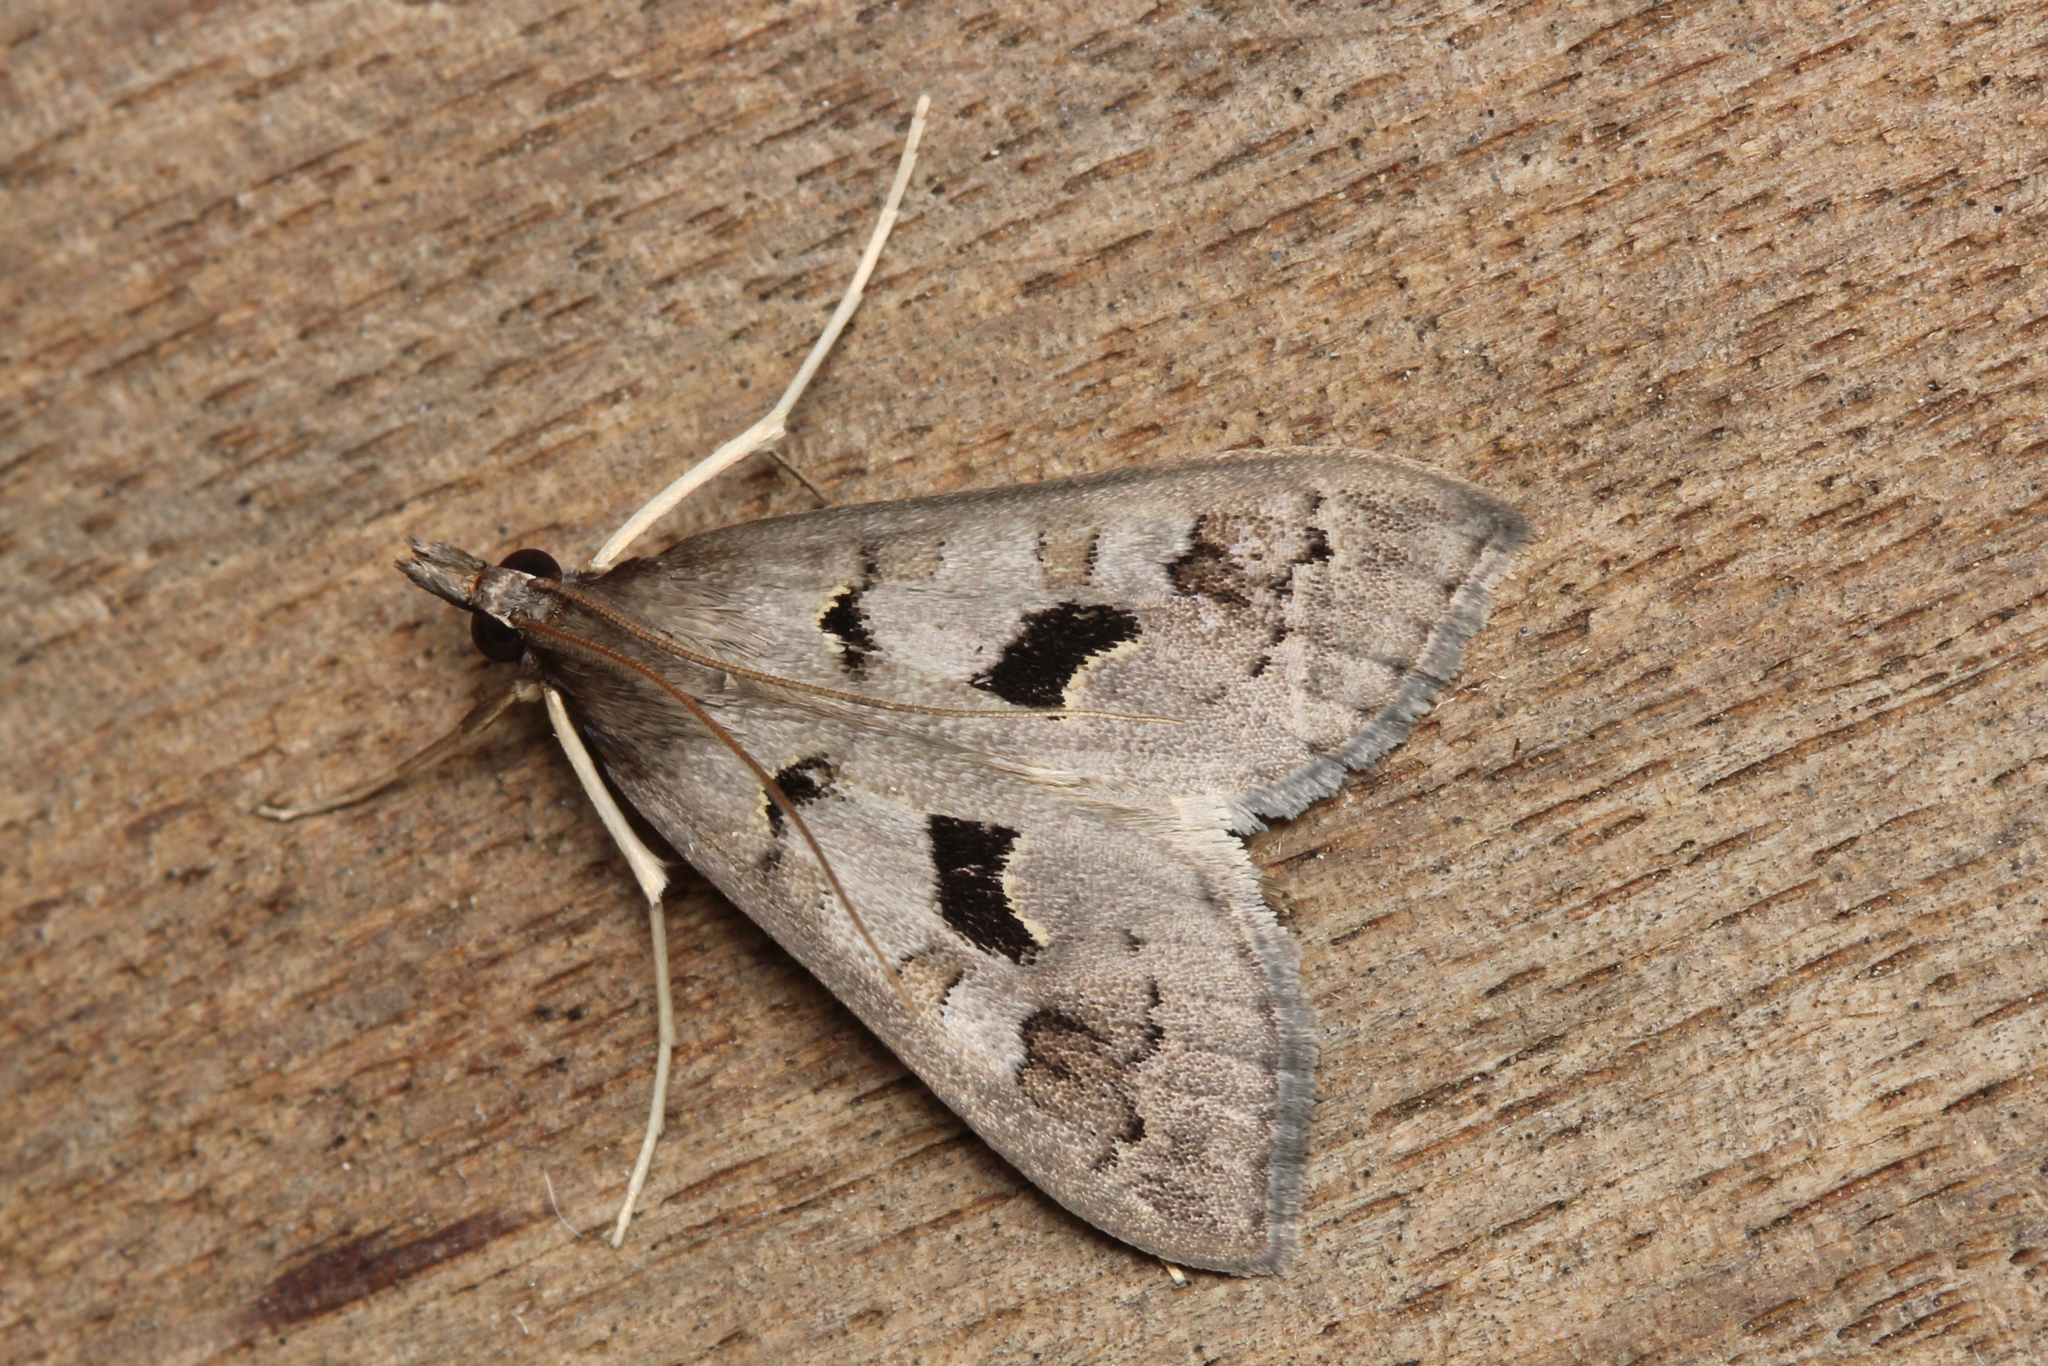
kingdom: Animalia
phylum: Arthropoda
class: Insecta
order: Lepidoptera
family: Crambidae
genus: Mecyna
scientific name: Mecyna asinalis
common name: Coastal pearl
